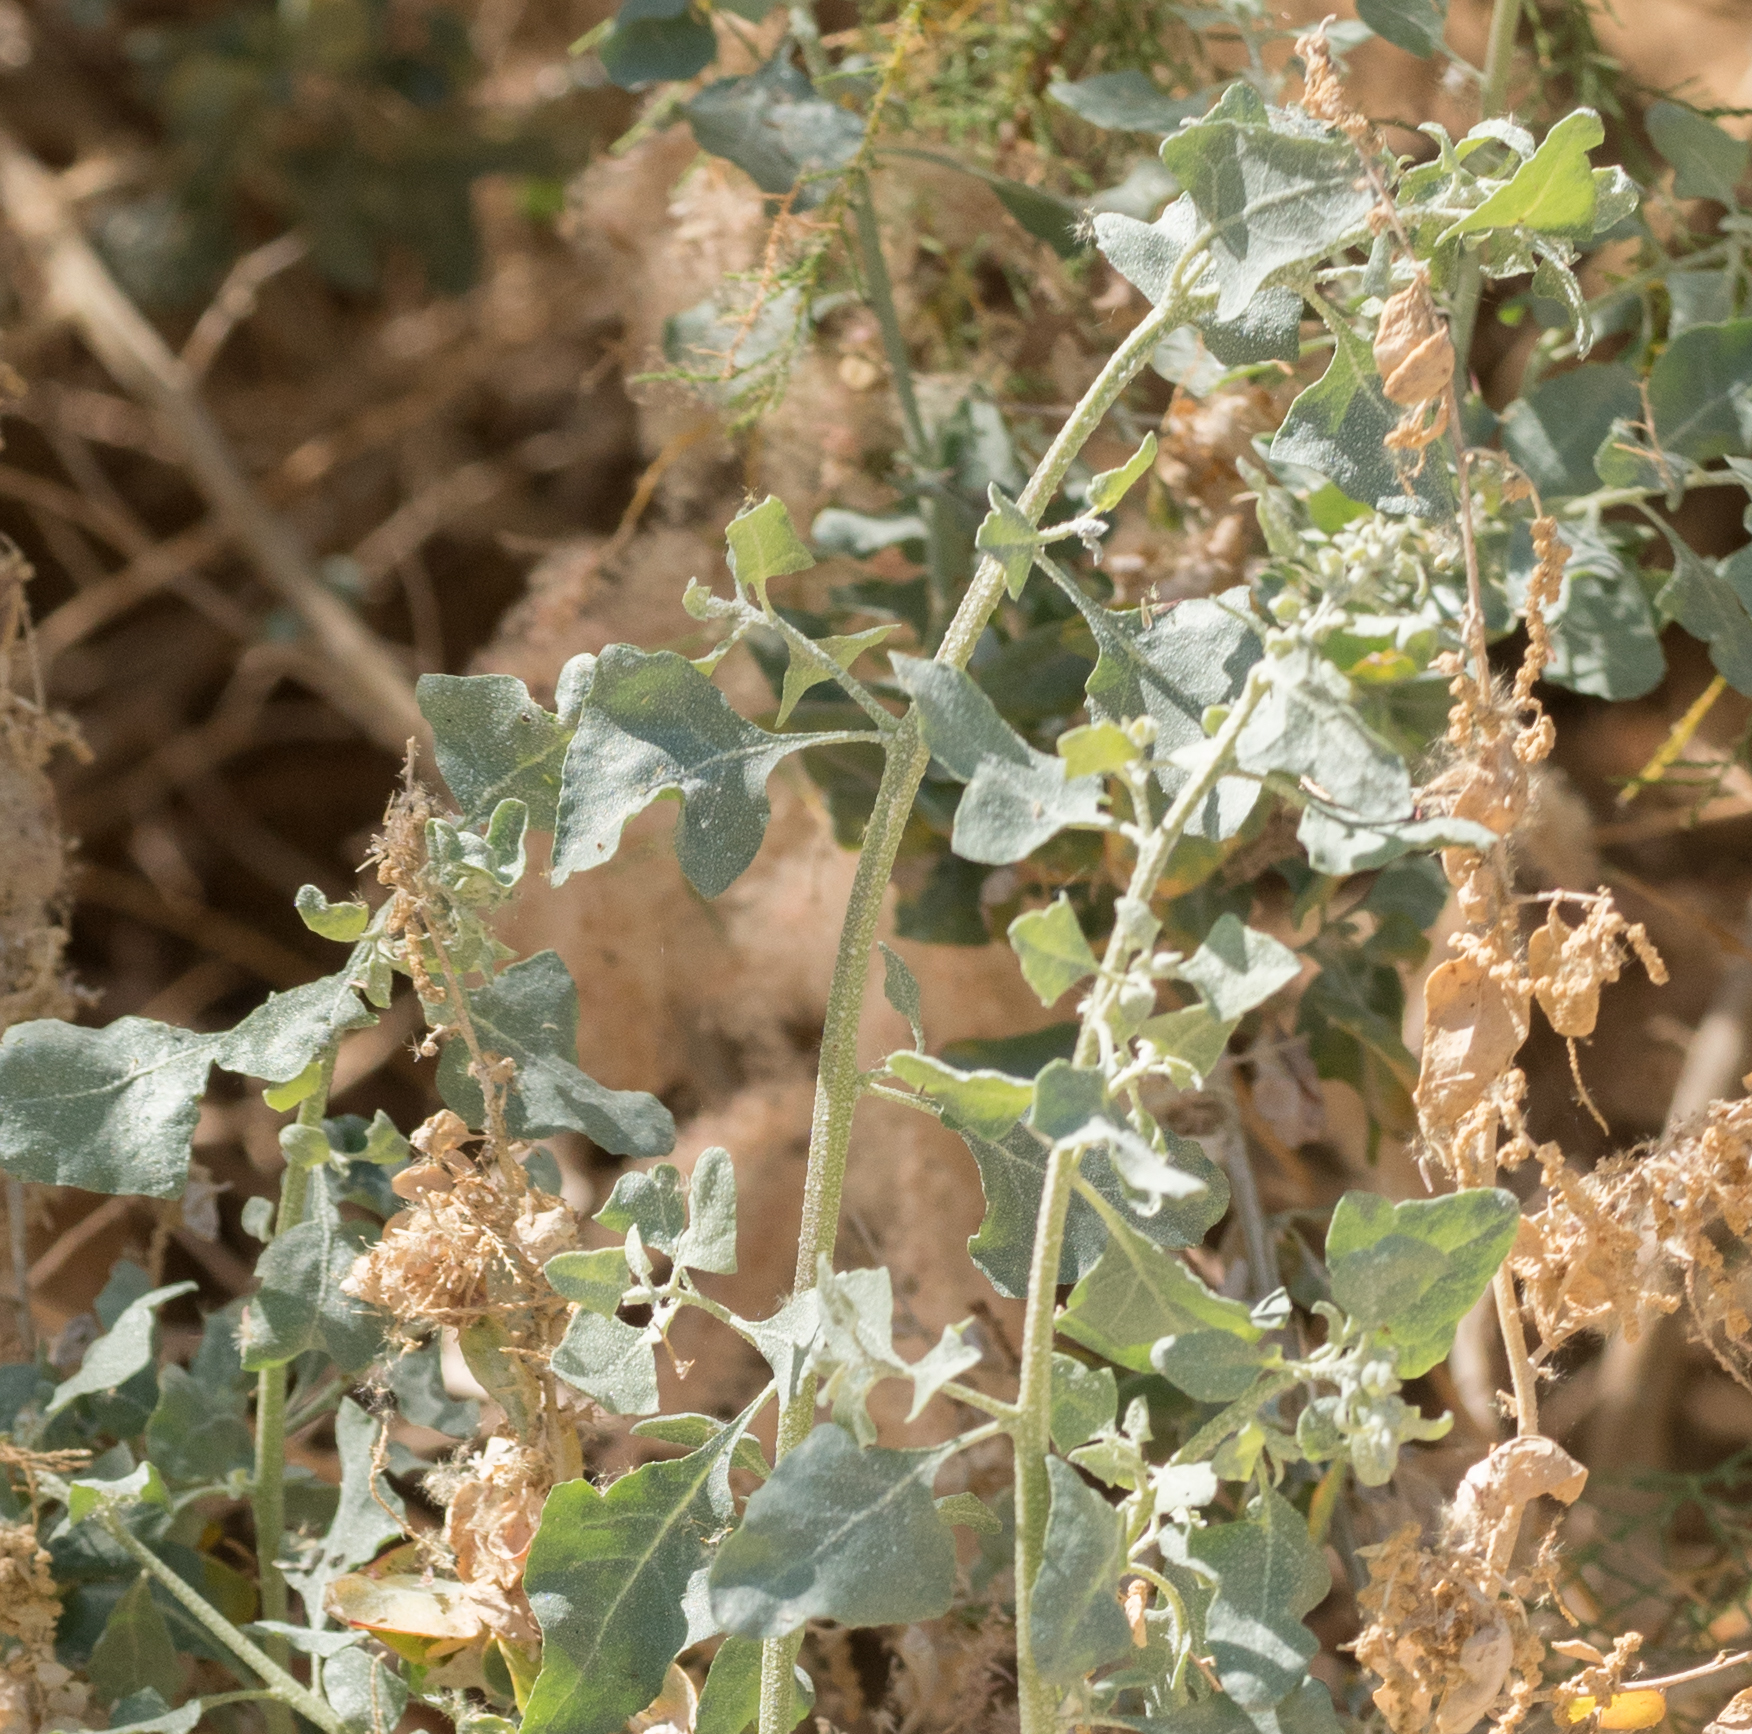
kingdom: Plantae
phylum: Tracheophyta
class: Magnoliopsida
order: Caryophyllales
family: Amaranthaceae
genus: Atriplex
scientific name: Atriplex lentiformis
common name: Big saltbush
